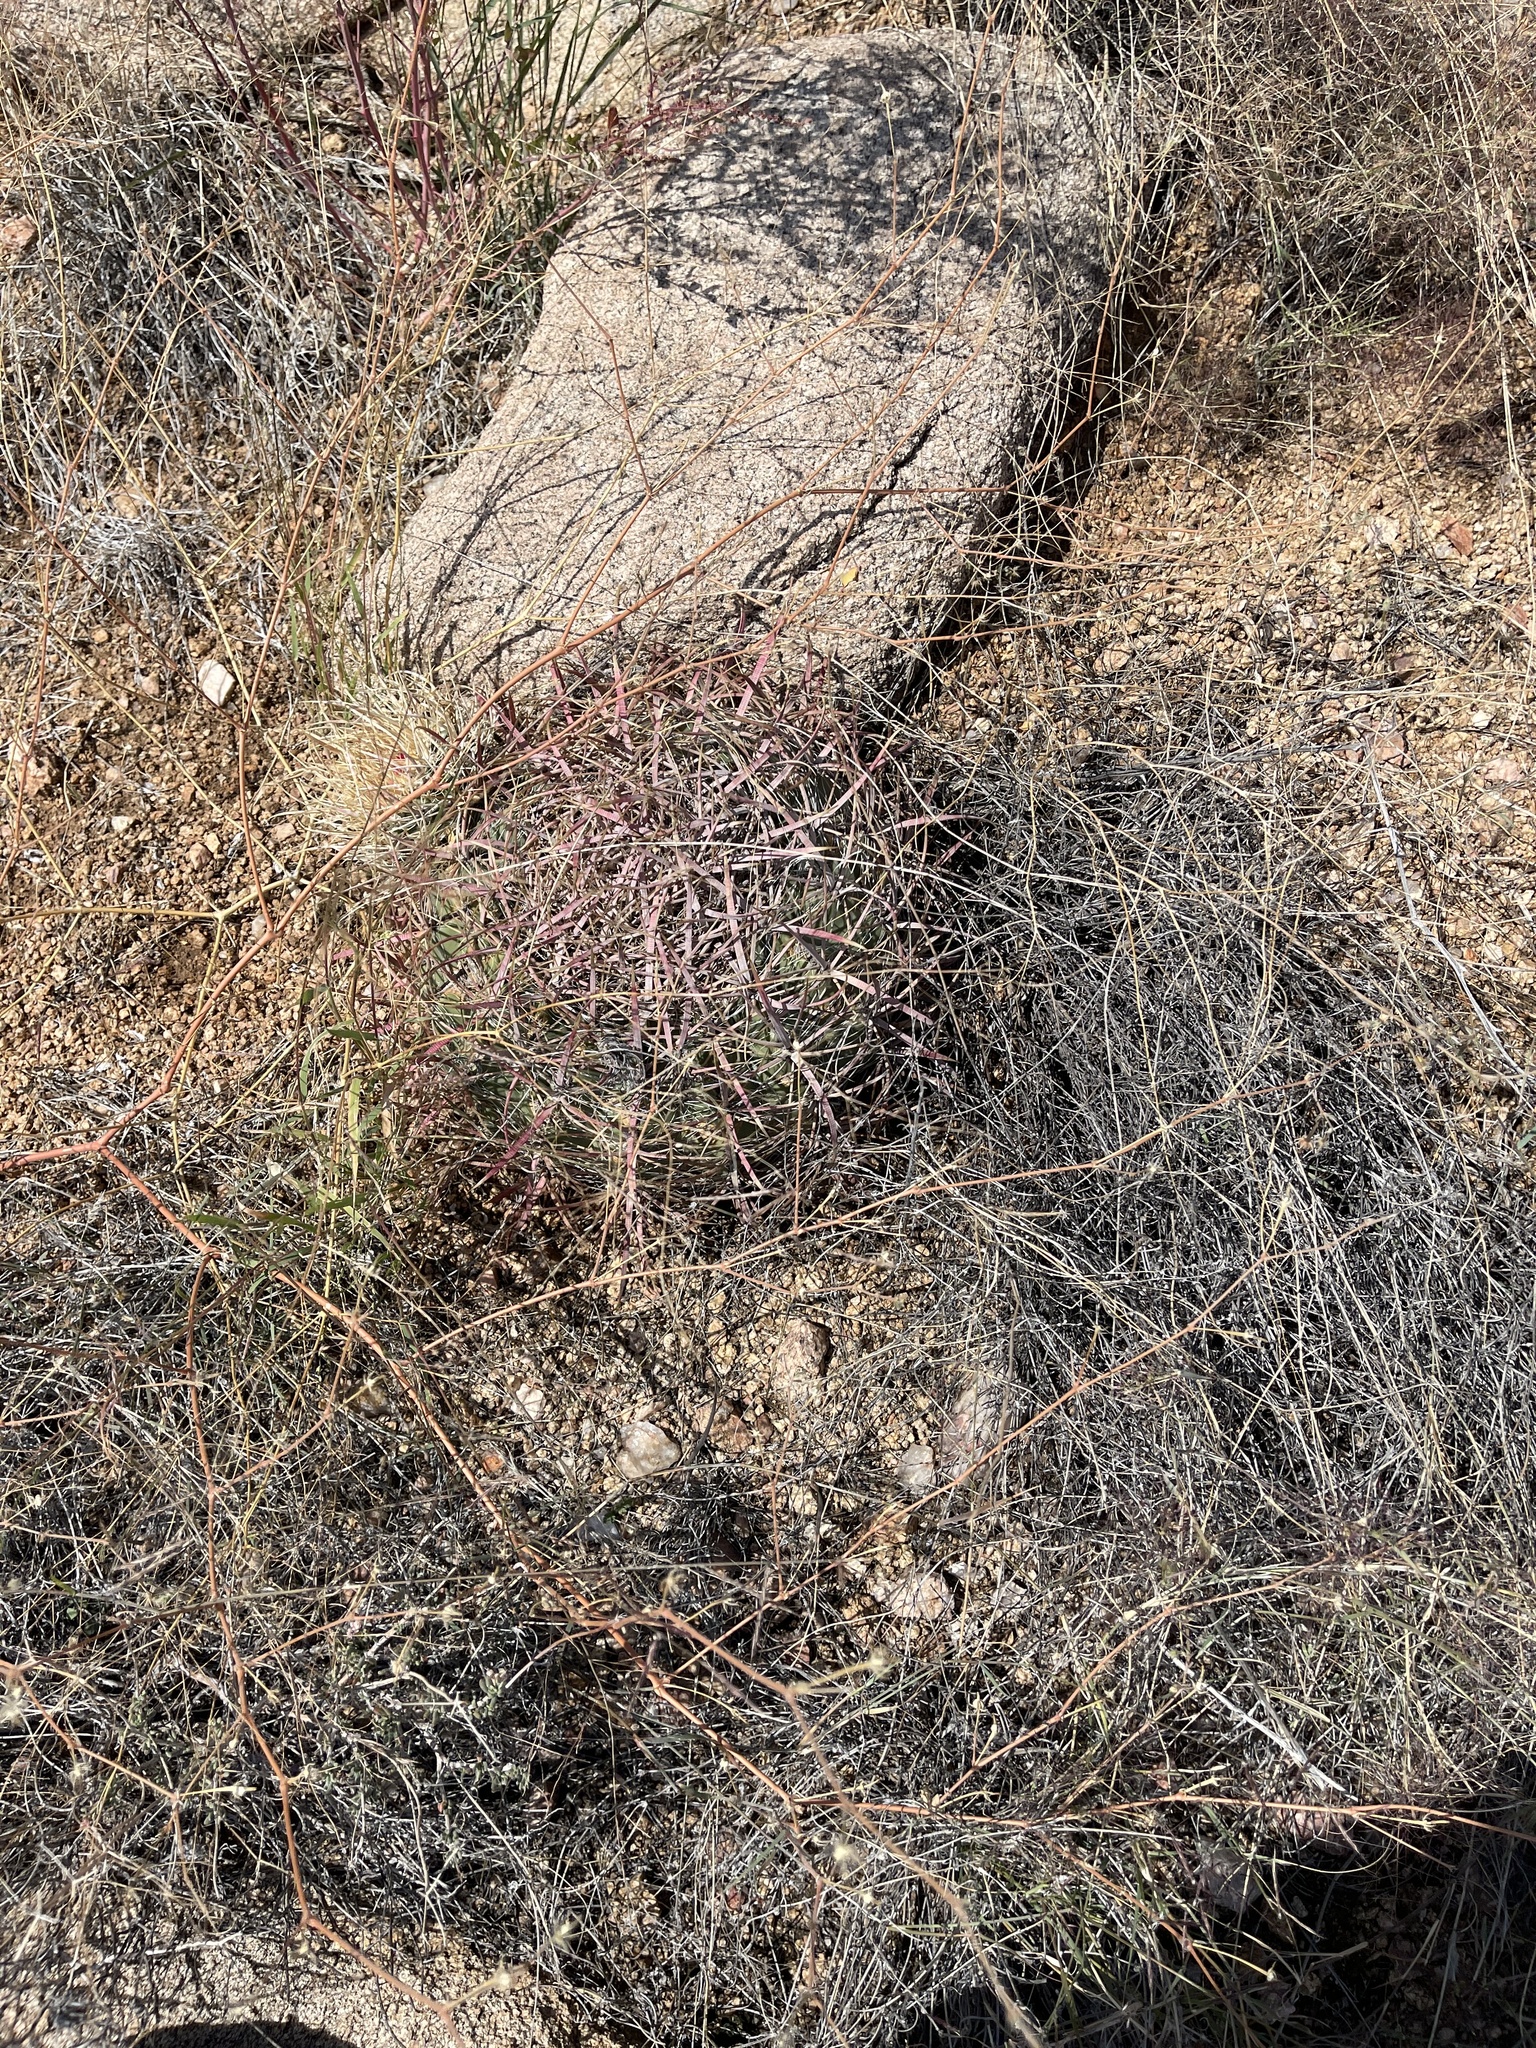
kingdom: Plantae
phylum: Tracheophyta
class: Magnoliopsida
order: Caryophyllales
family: Cactaceae
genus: Ferocactus
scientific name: Ferocactus cylindraceus
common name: California barrel cactus
